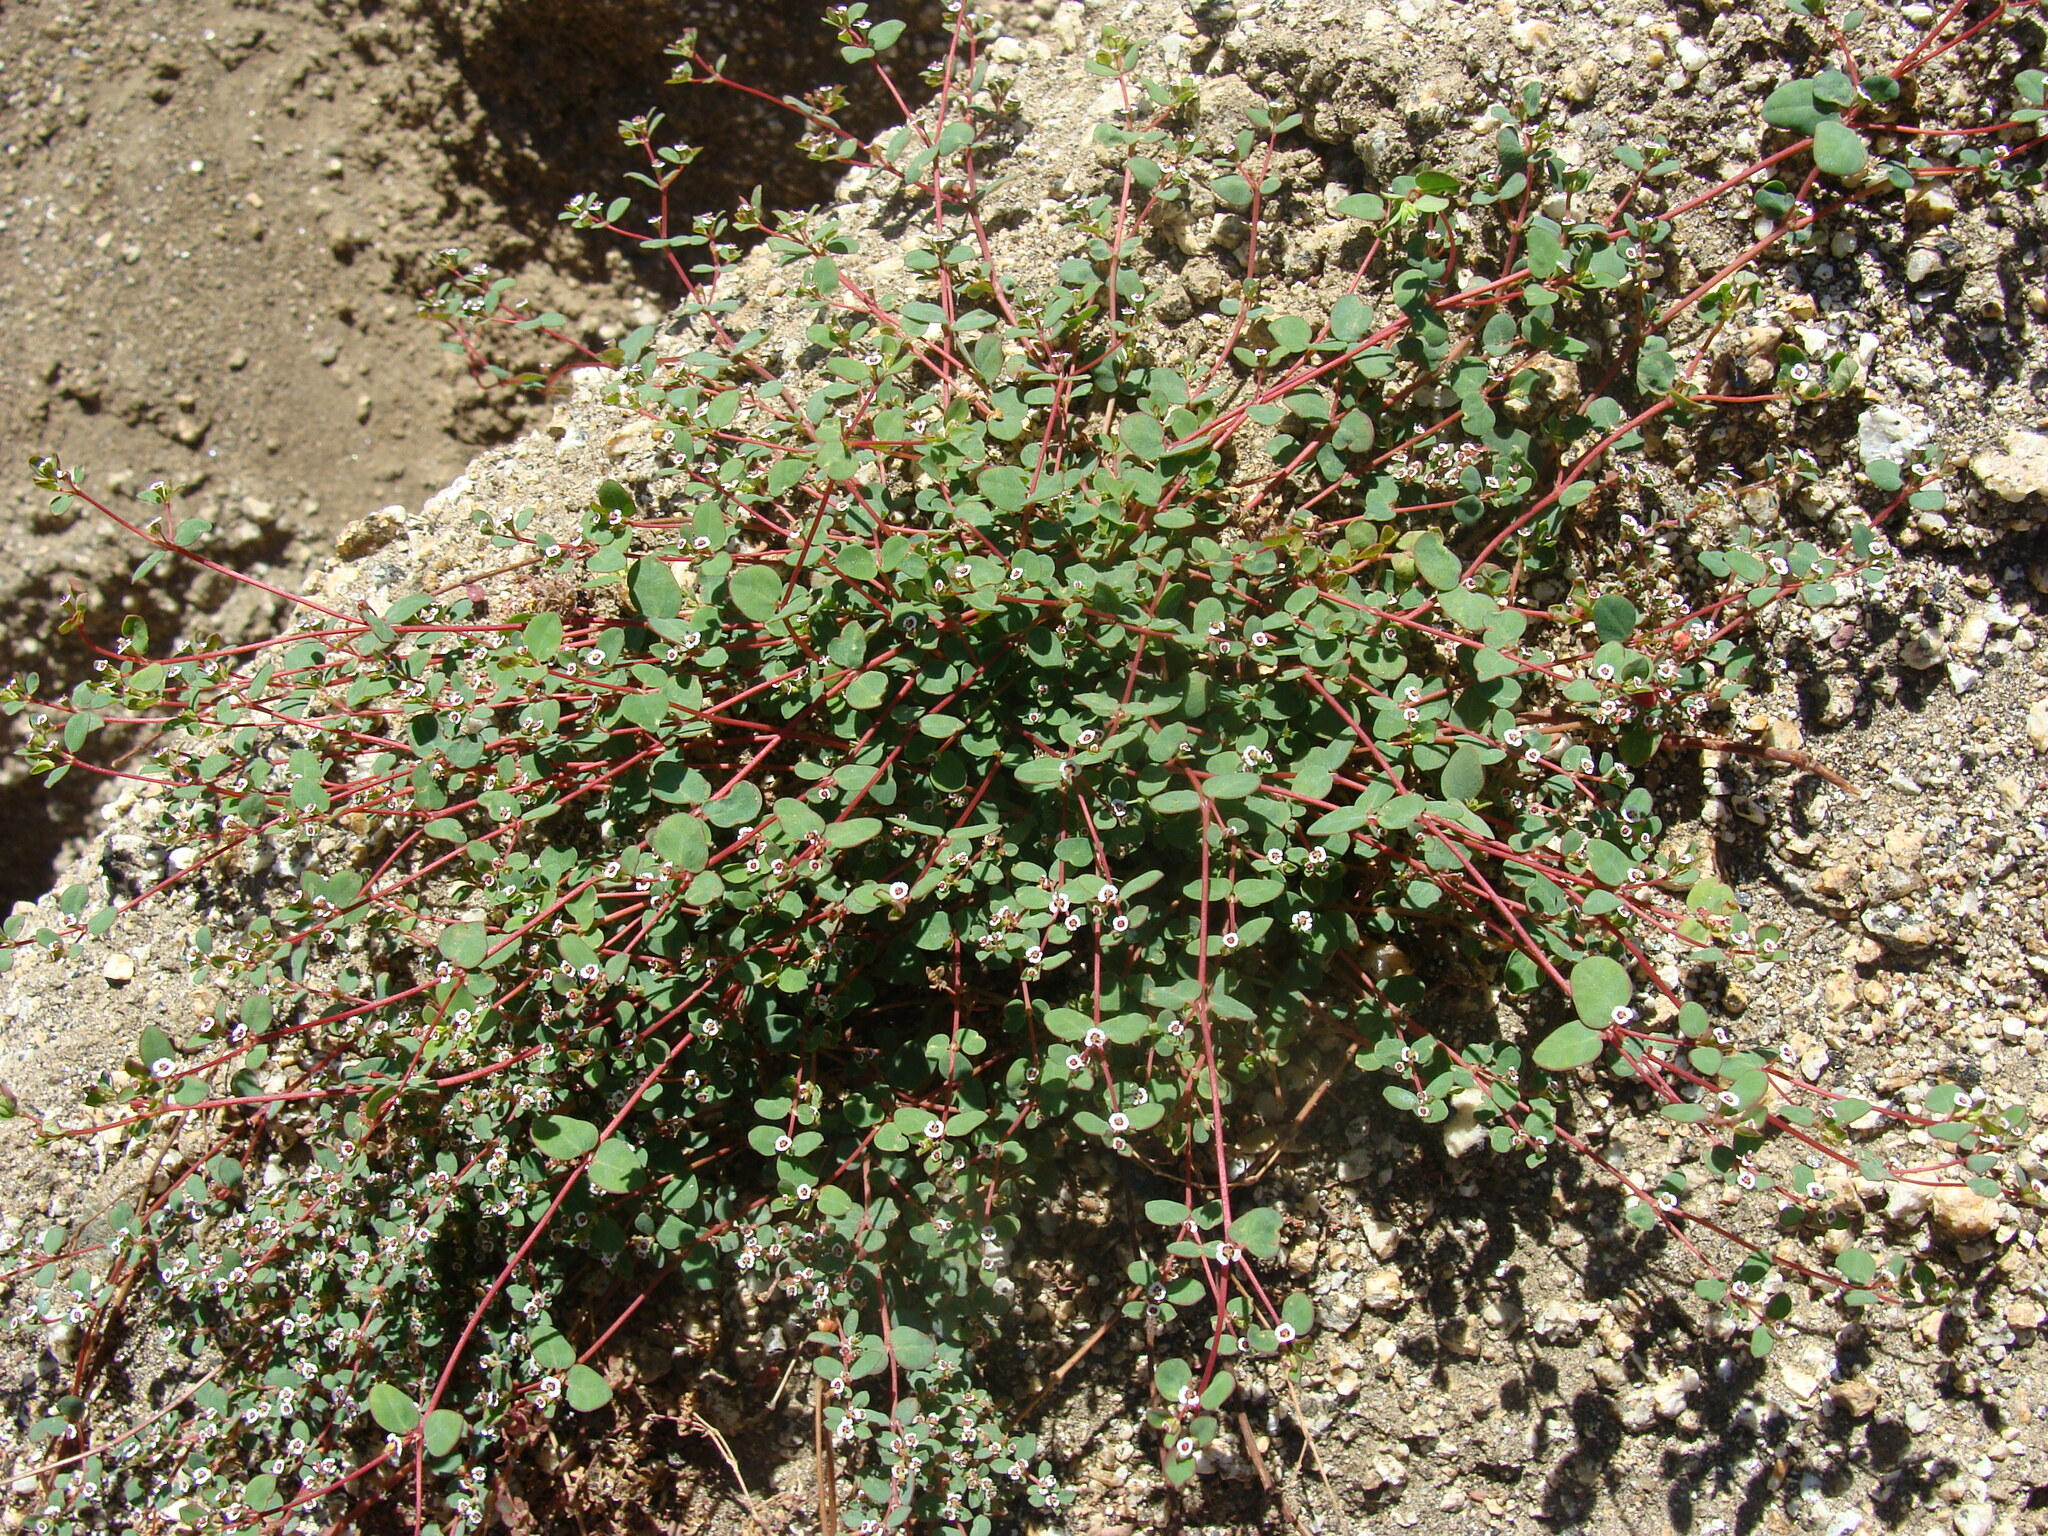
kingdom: Plantae
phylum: Tracheophyta
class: Magnoliopsida
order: Malpighiales
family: Euphorbiaceae
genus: Euphorbia
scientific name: Euphorbia polycarpa
